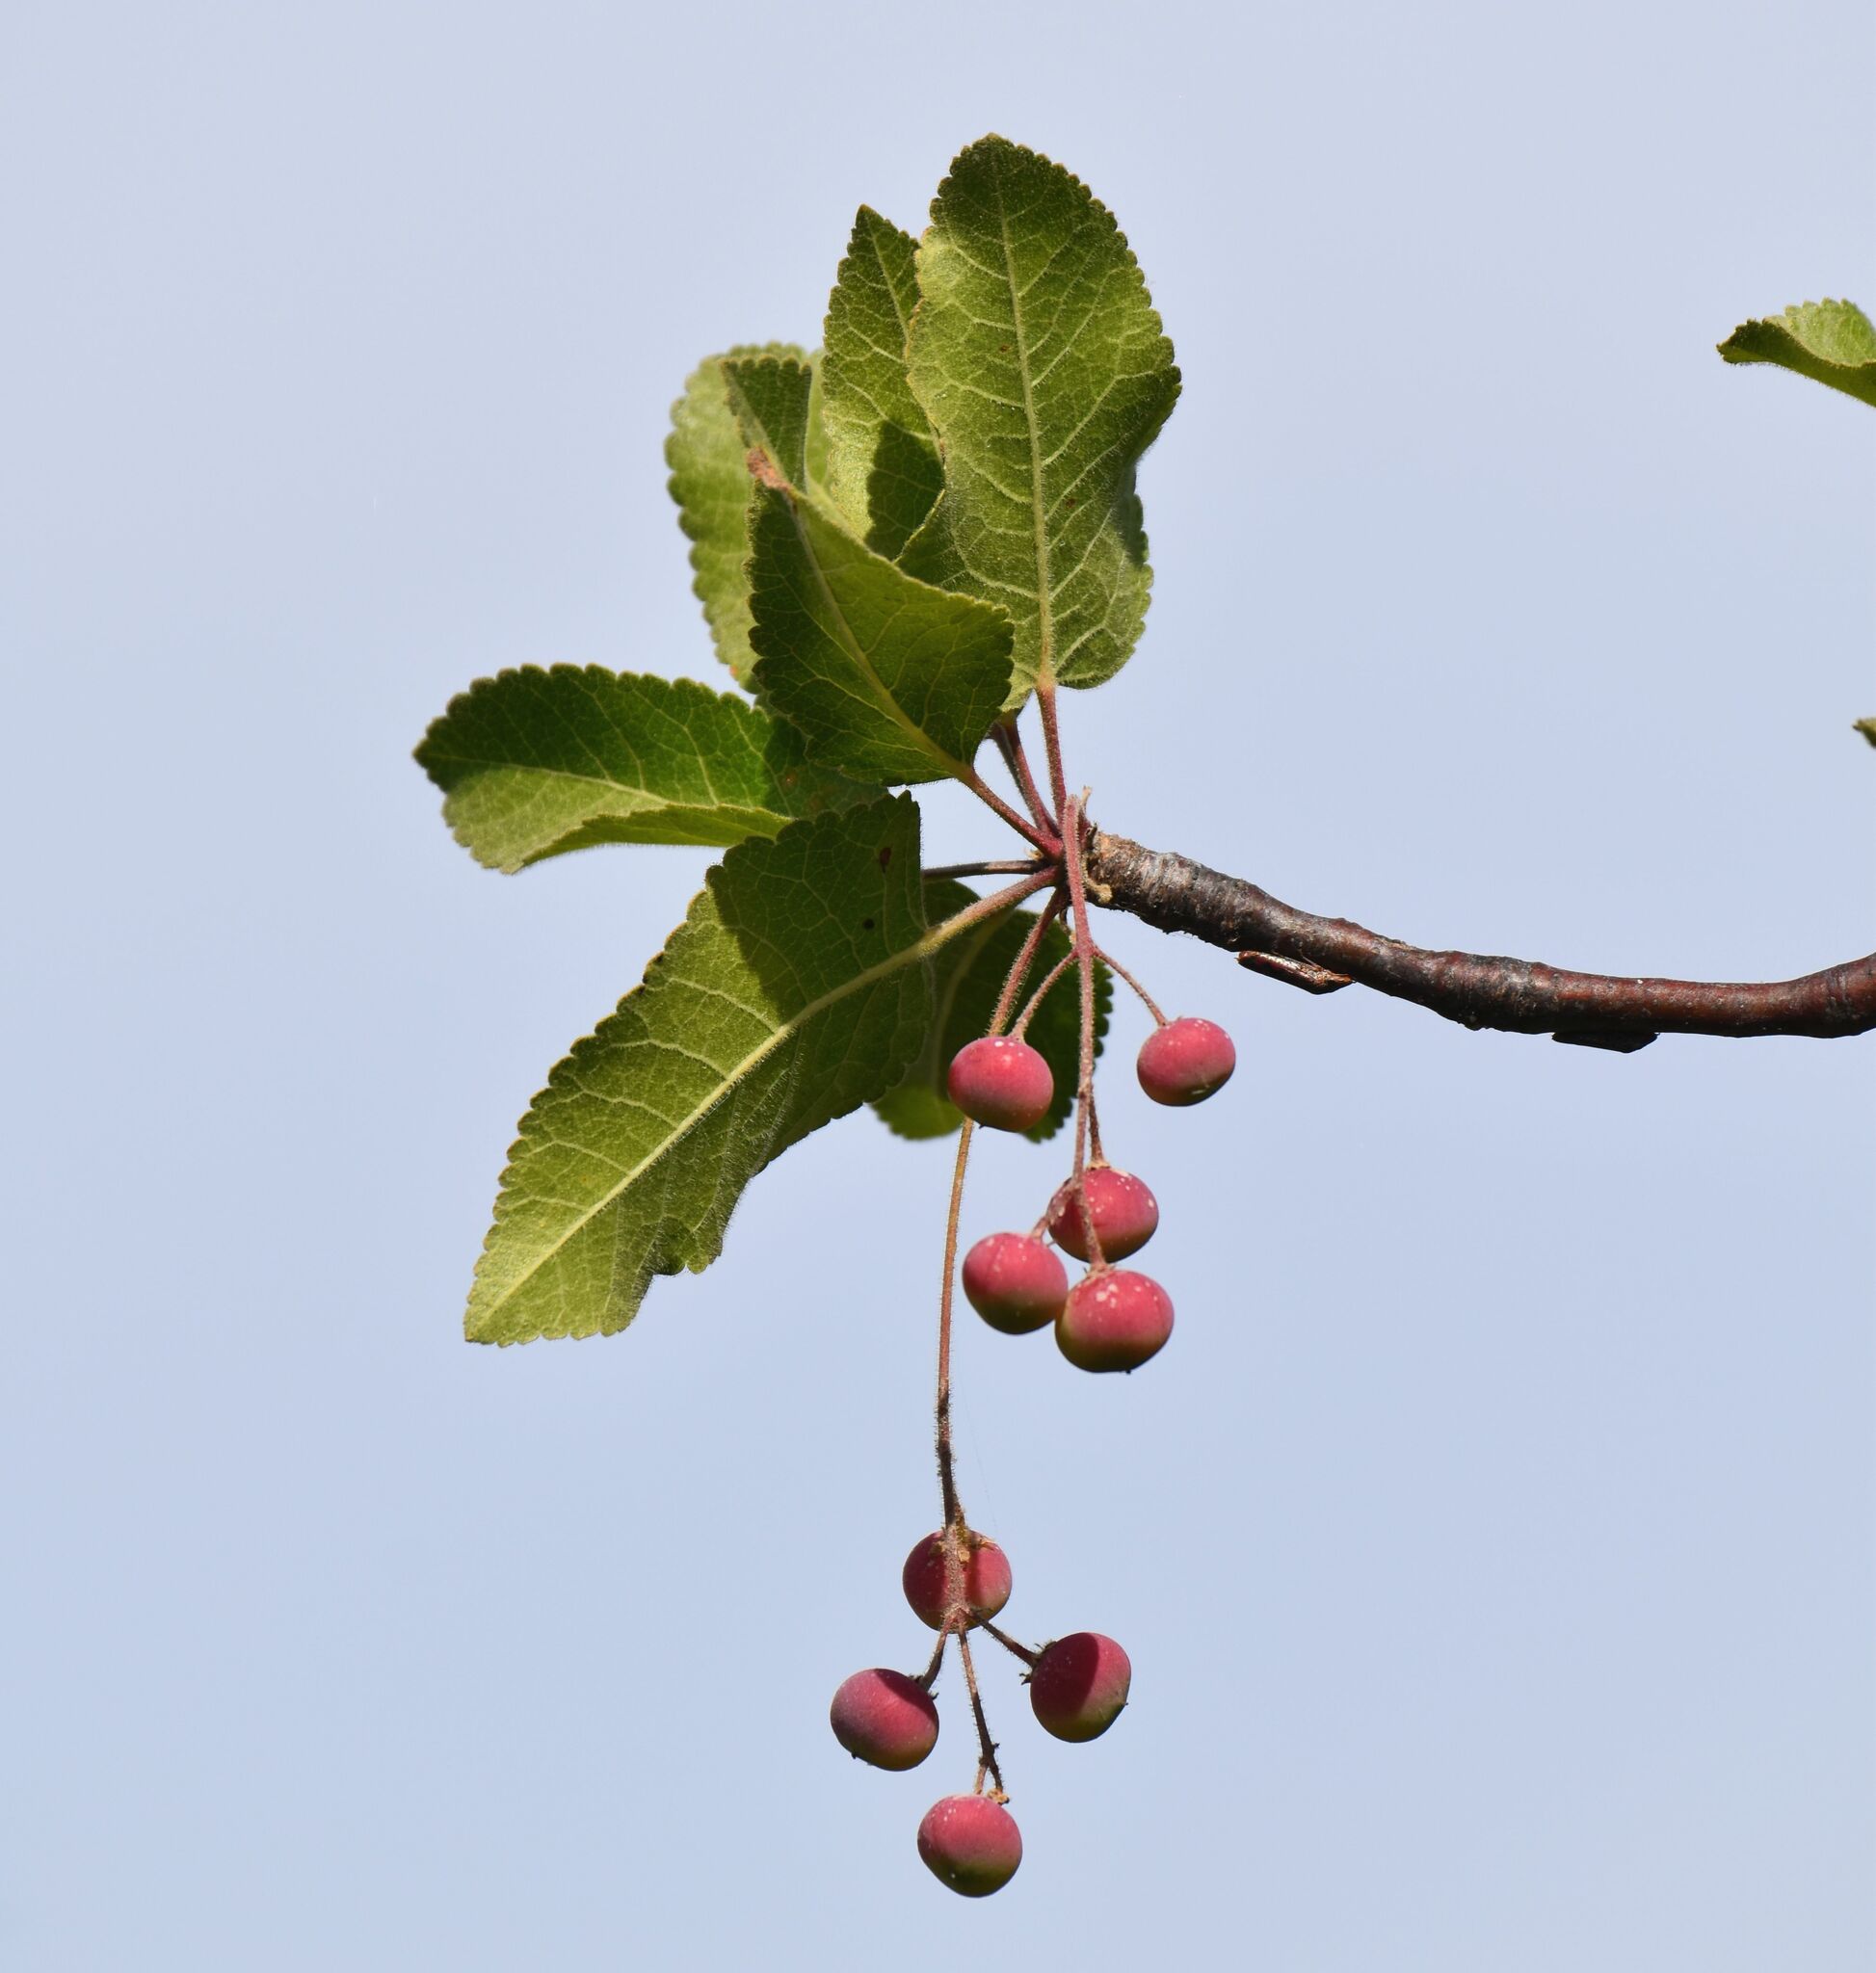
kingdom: Plantae
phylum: Tracheophyta
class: Magnoliopsida
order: Sapindales
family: Burseraceae
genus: Bursera
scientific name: Bursera epinnata
